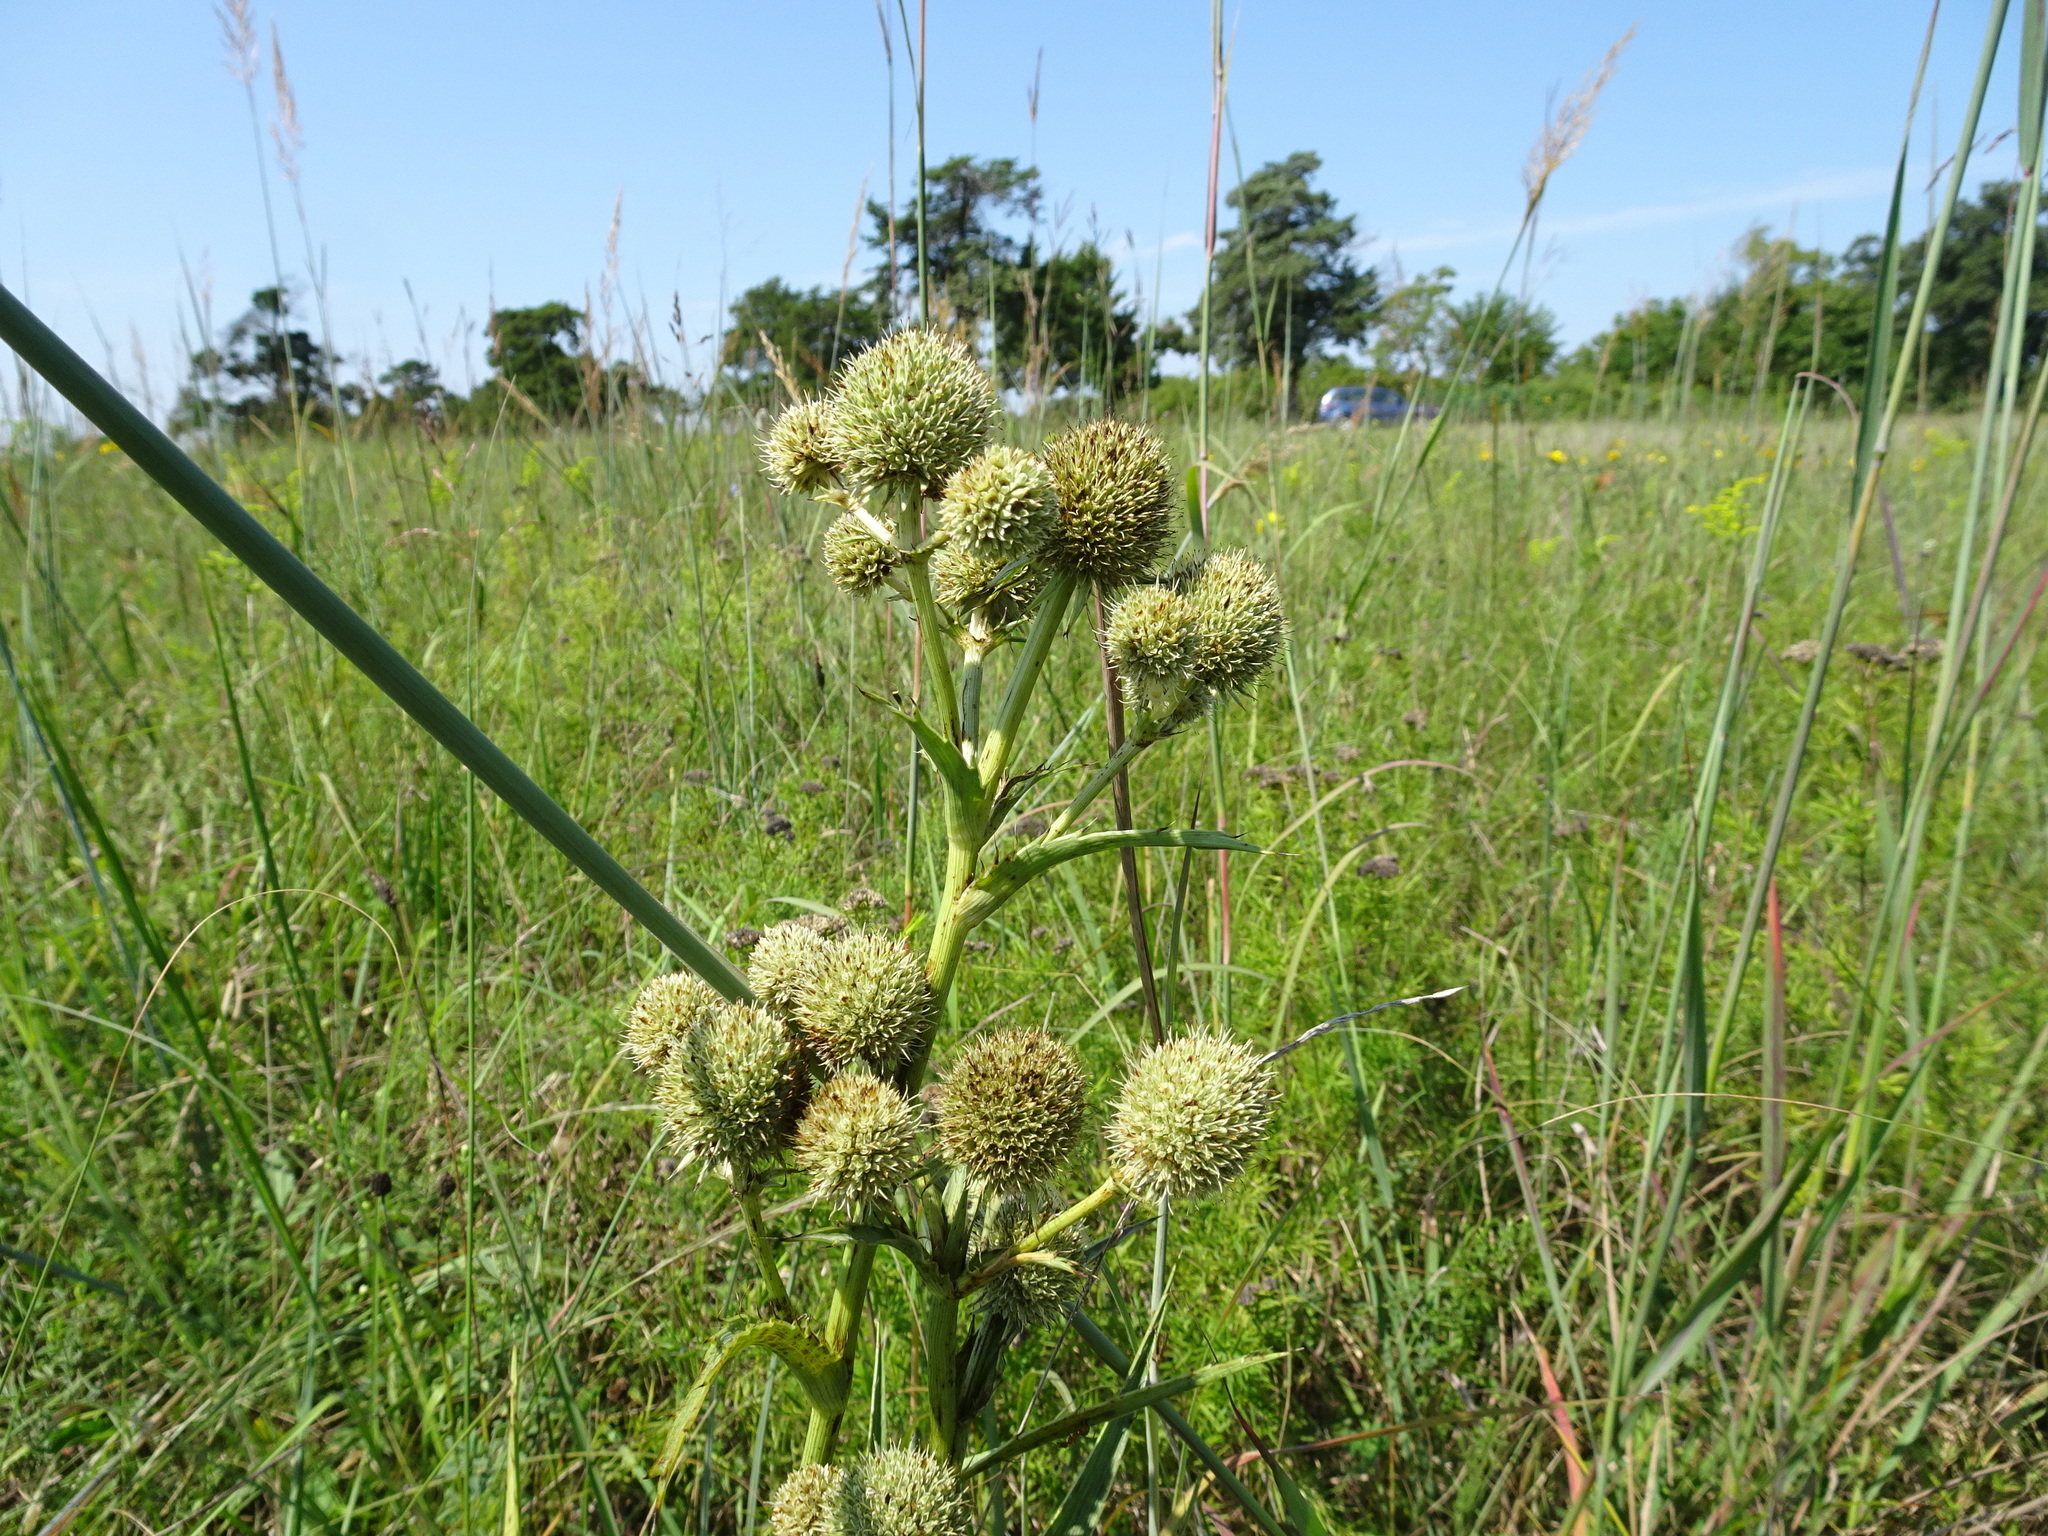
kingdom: Plantae
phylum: Tracheophyta
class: Magnoliopsida
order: Apiales
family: Apiaceae
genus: Eryngium
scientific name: Eryngium yuccifolium
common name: Button eryngo
